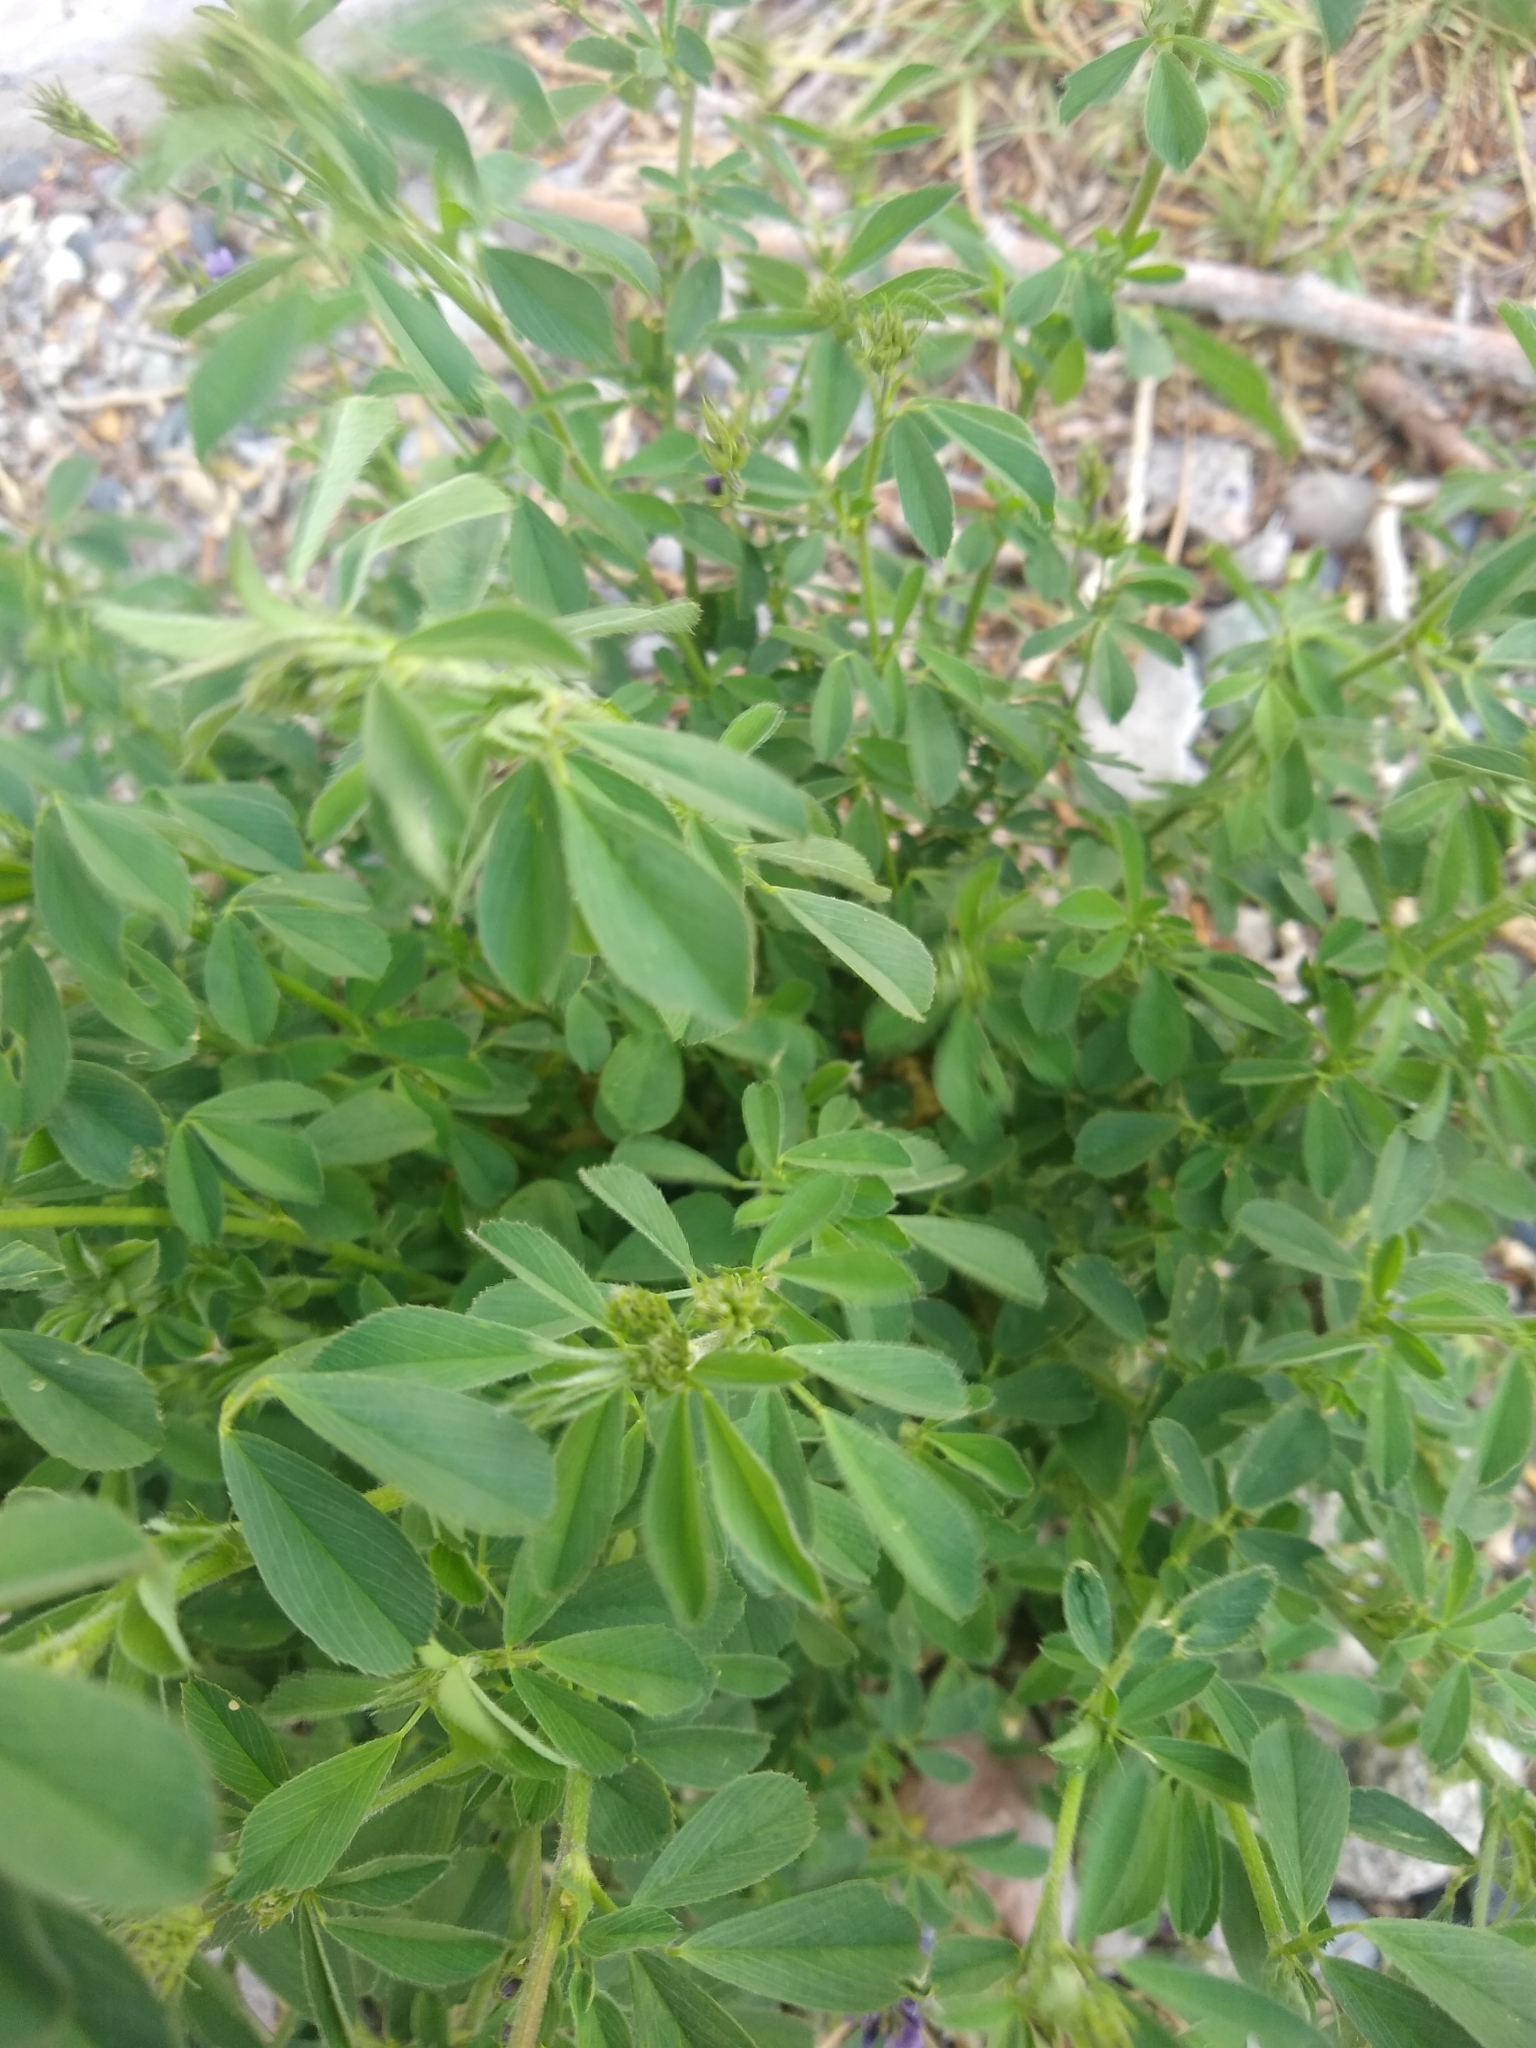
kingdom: Plantae
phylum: Tracheophyta
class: Magnoliopsida
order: Fabales
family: Fabaceae
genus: Medicago
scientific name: Medicago sativa
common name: Alfalfa
